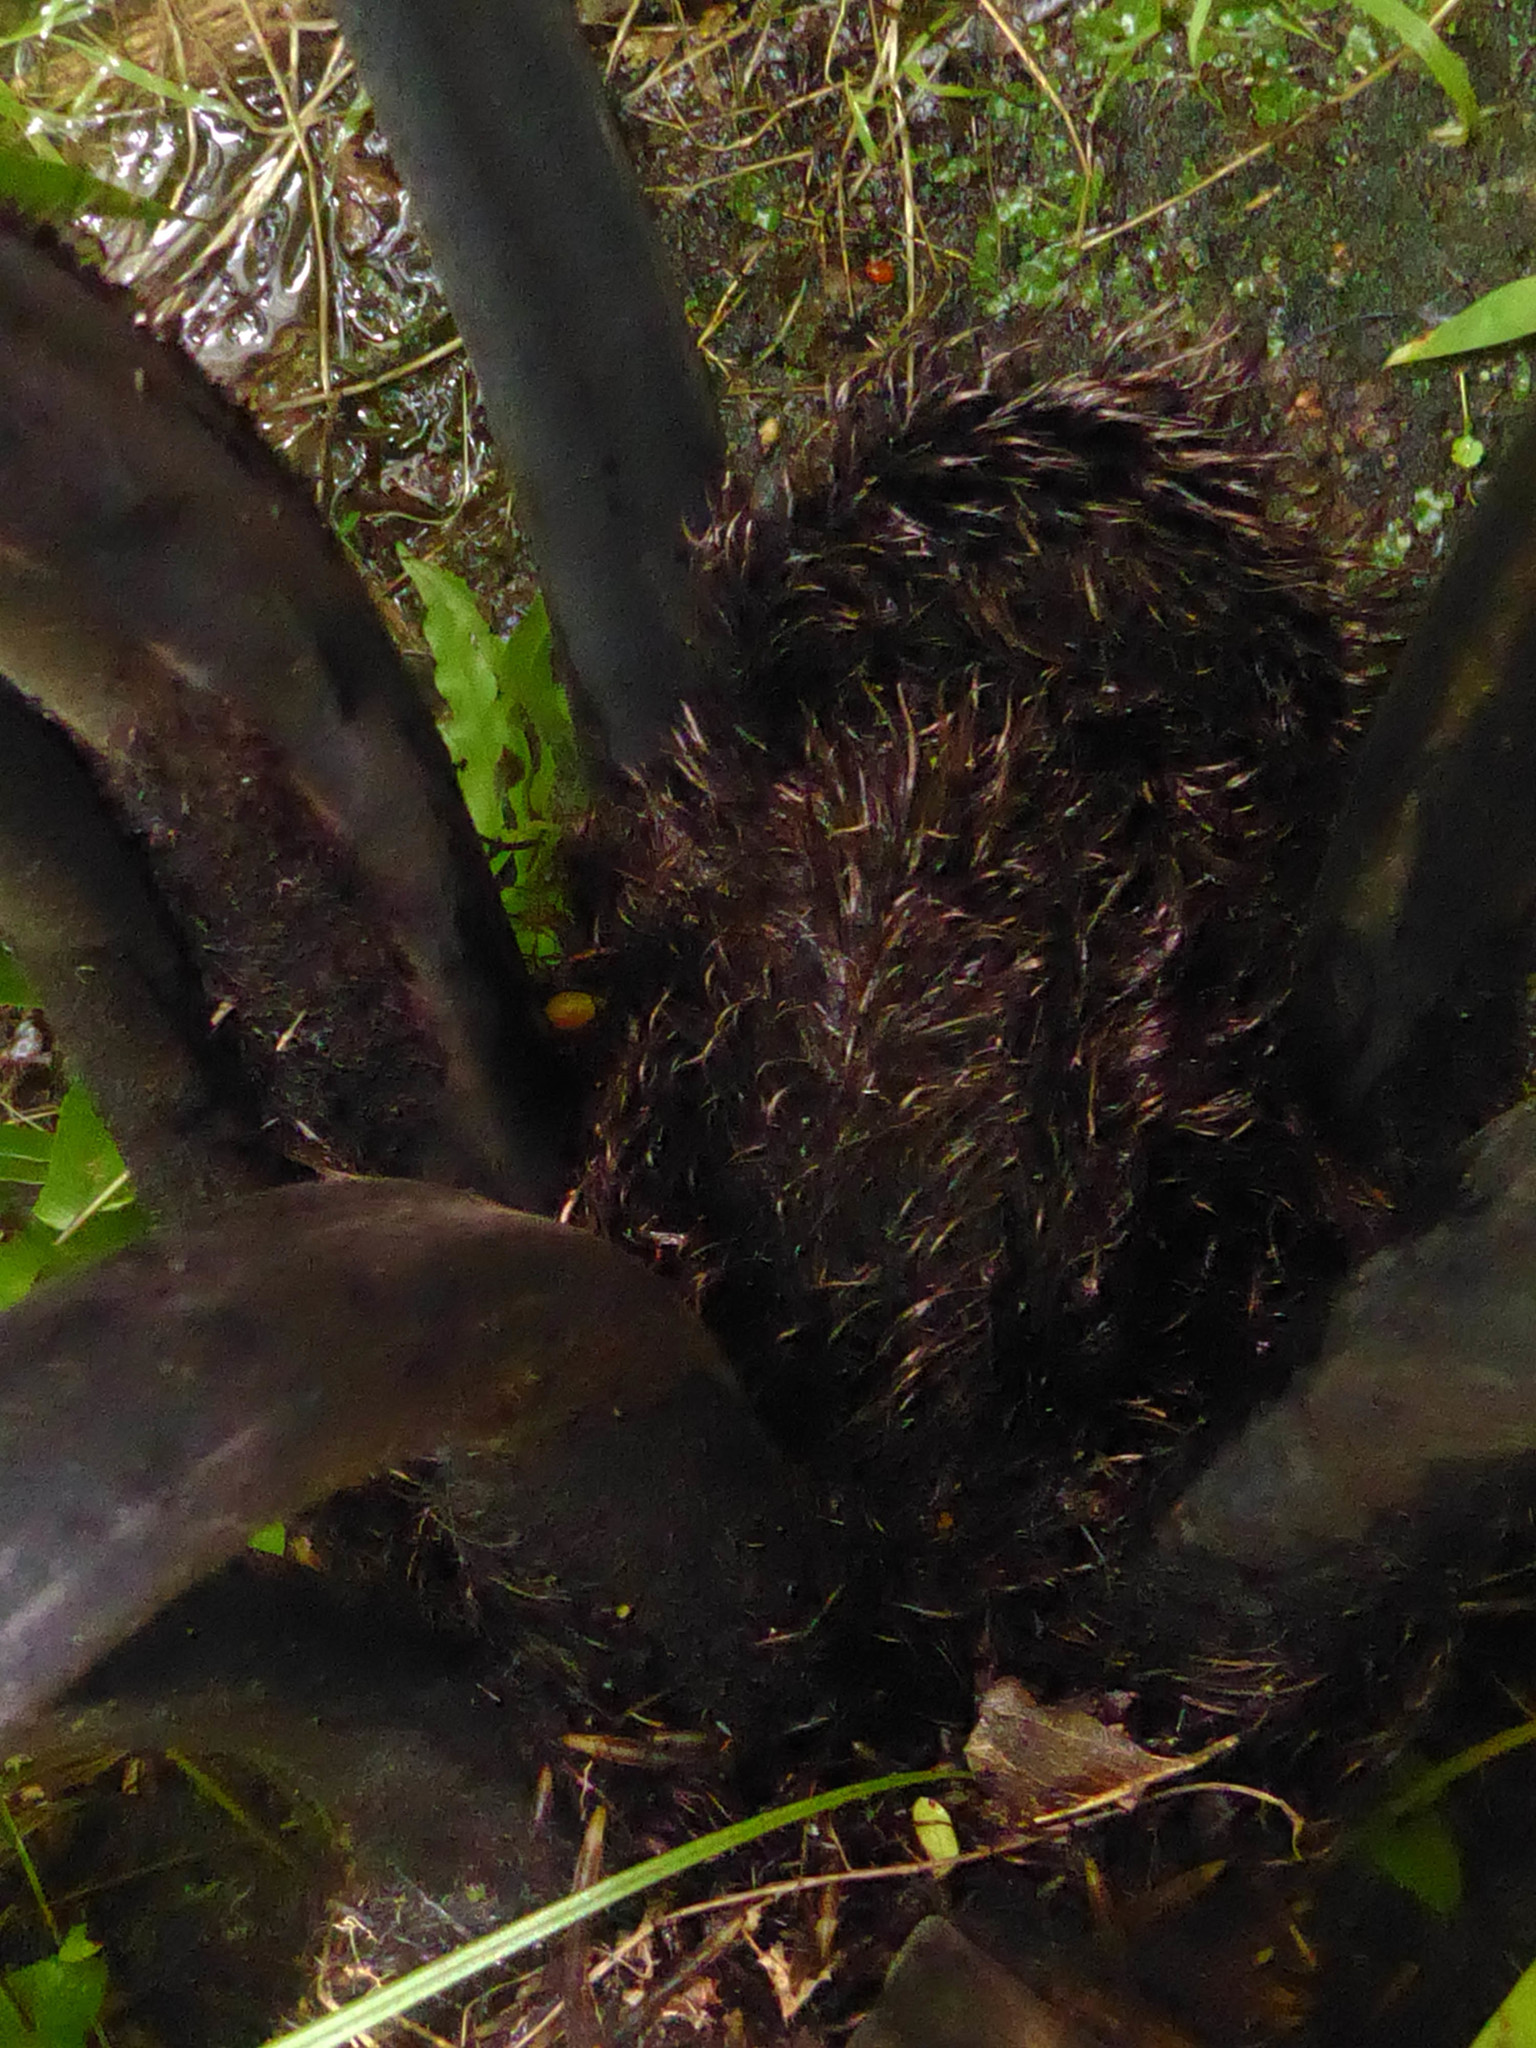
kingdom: Plantae
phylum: Tracheophyta
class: Polypodiopsida
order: Cyatheales
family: Cyatheaceae
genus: Sphaeropteris
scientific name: Sphaeropteris medullaris
